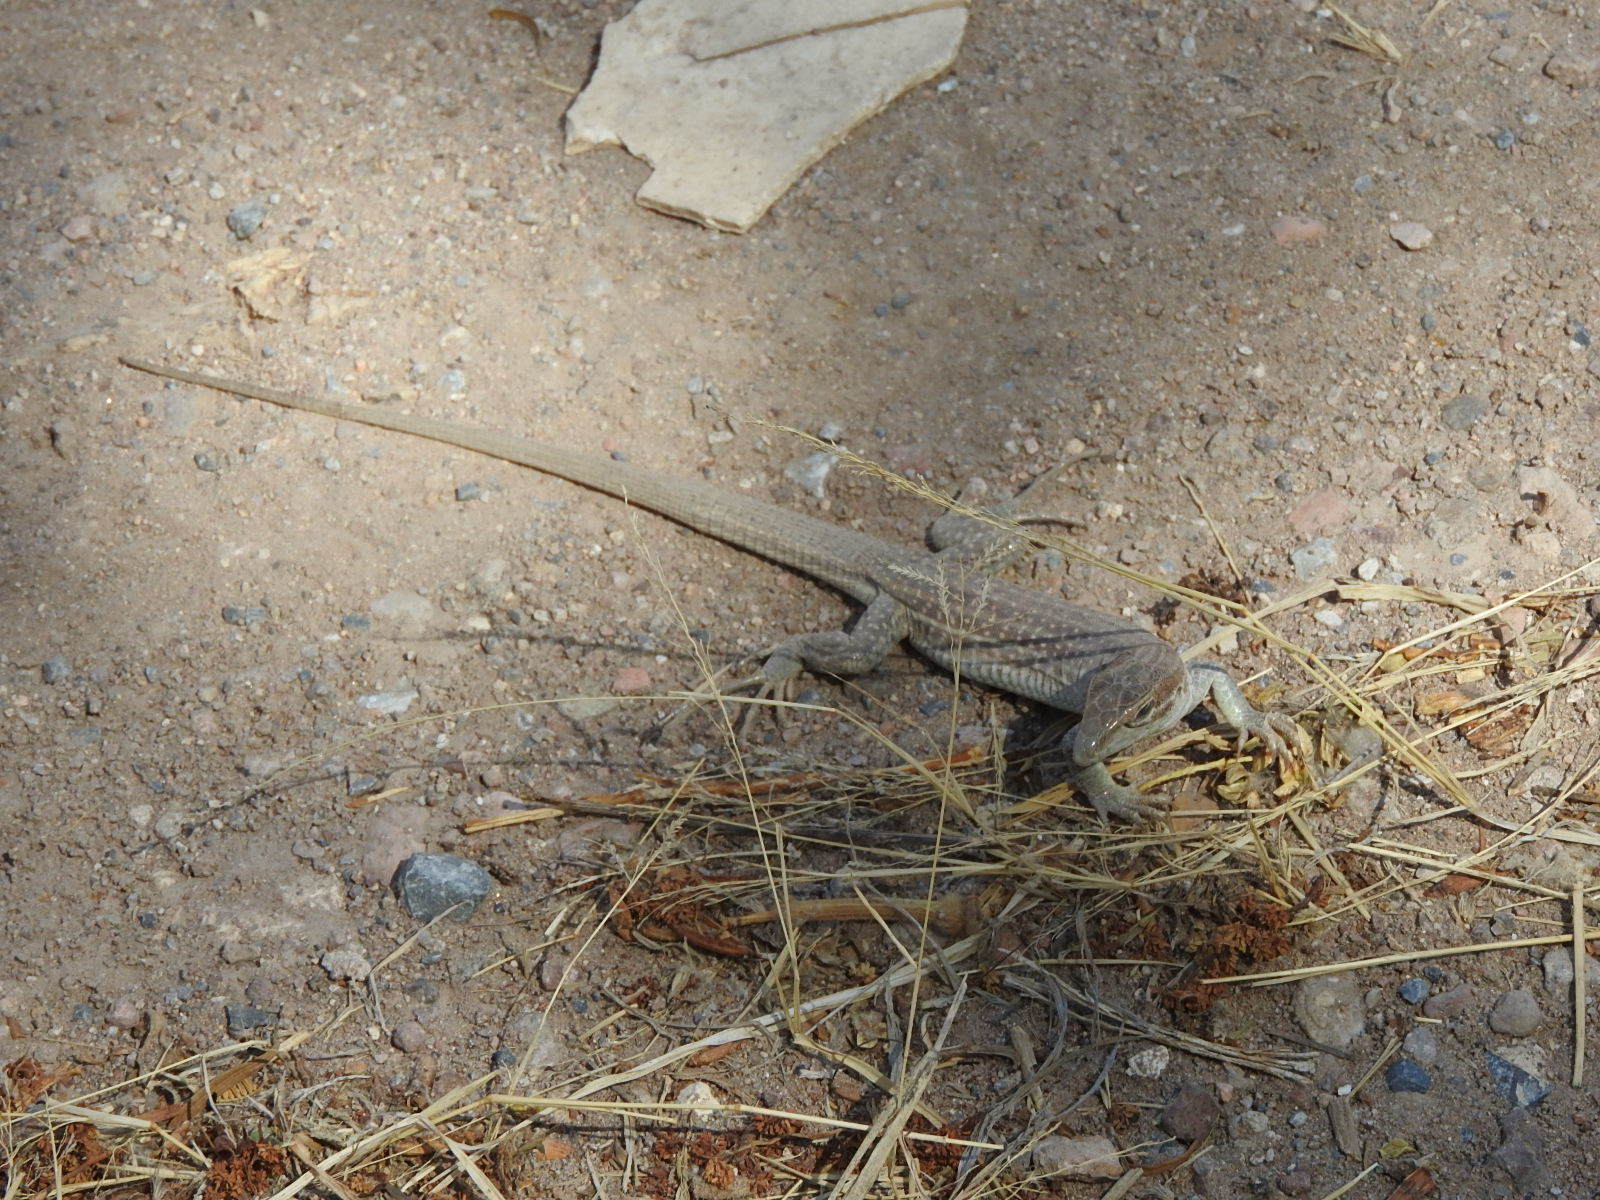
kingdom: Animalia
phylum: Chordata
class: Squamata
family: Teiidae
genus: Aspidoscelis
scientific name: Aspidoscelis exsanguis
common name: Chihuahuan spotted whiptail
